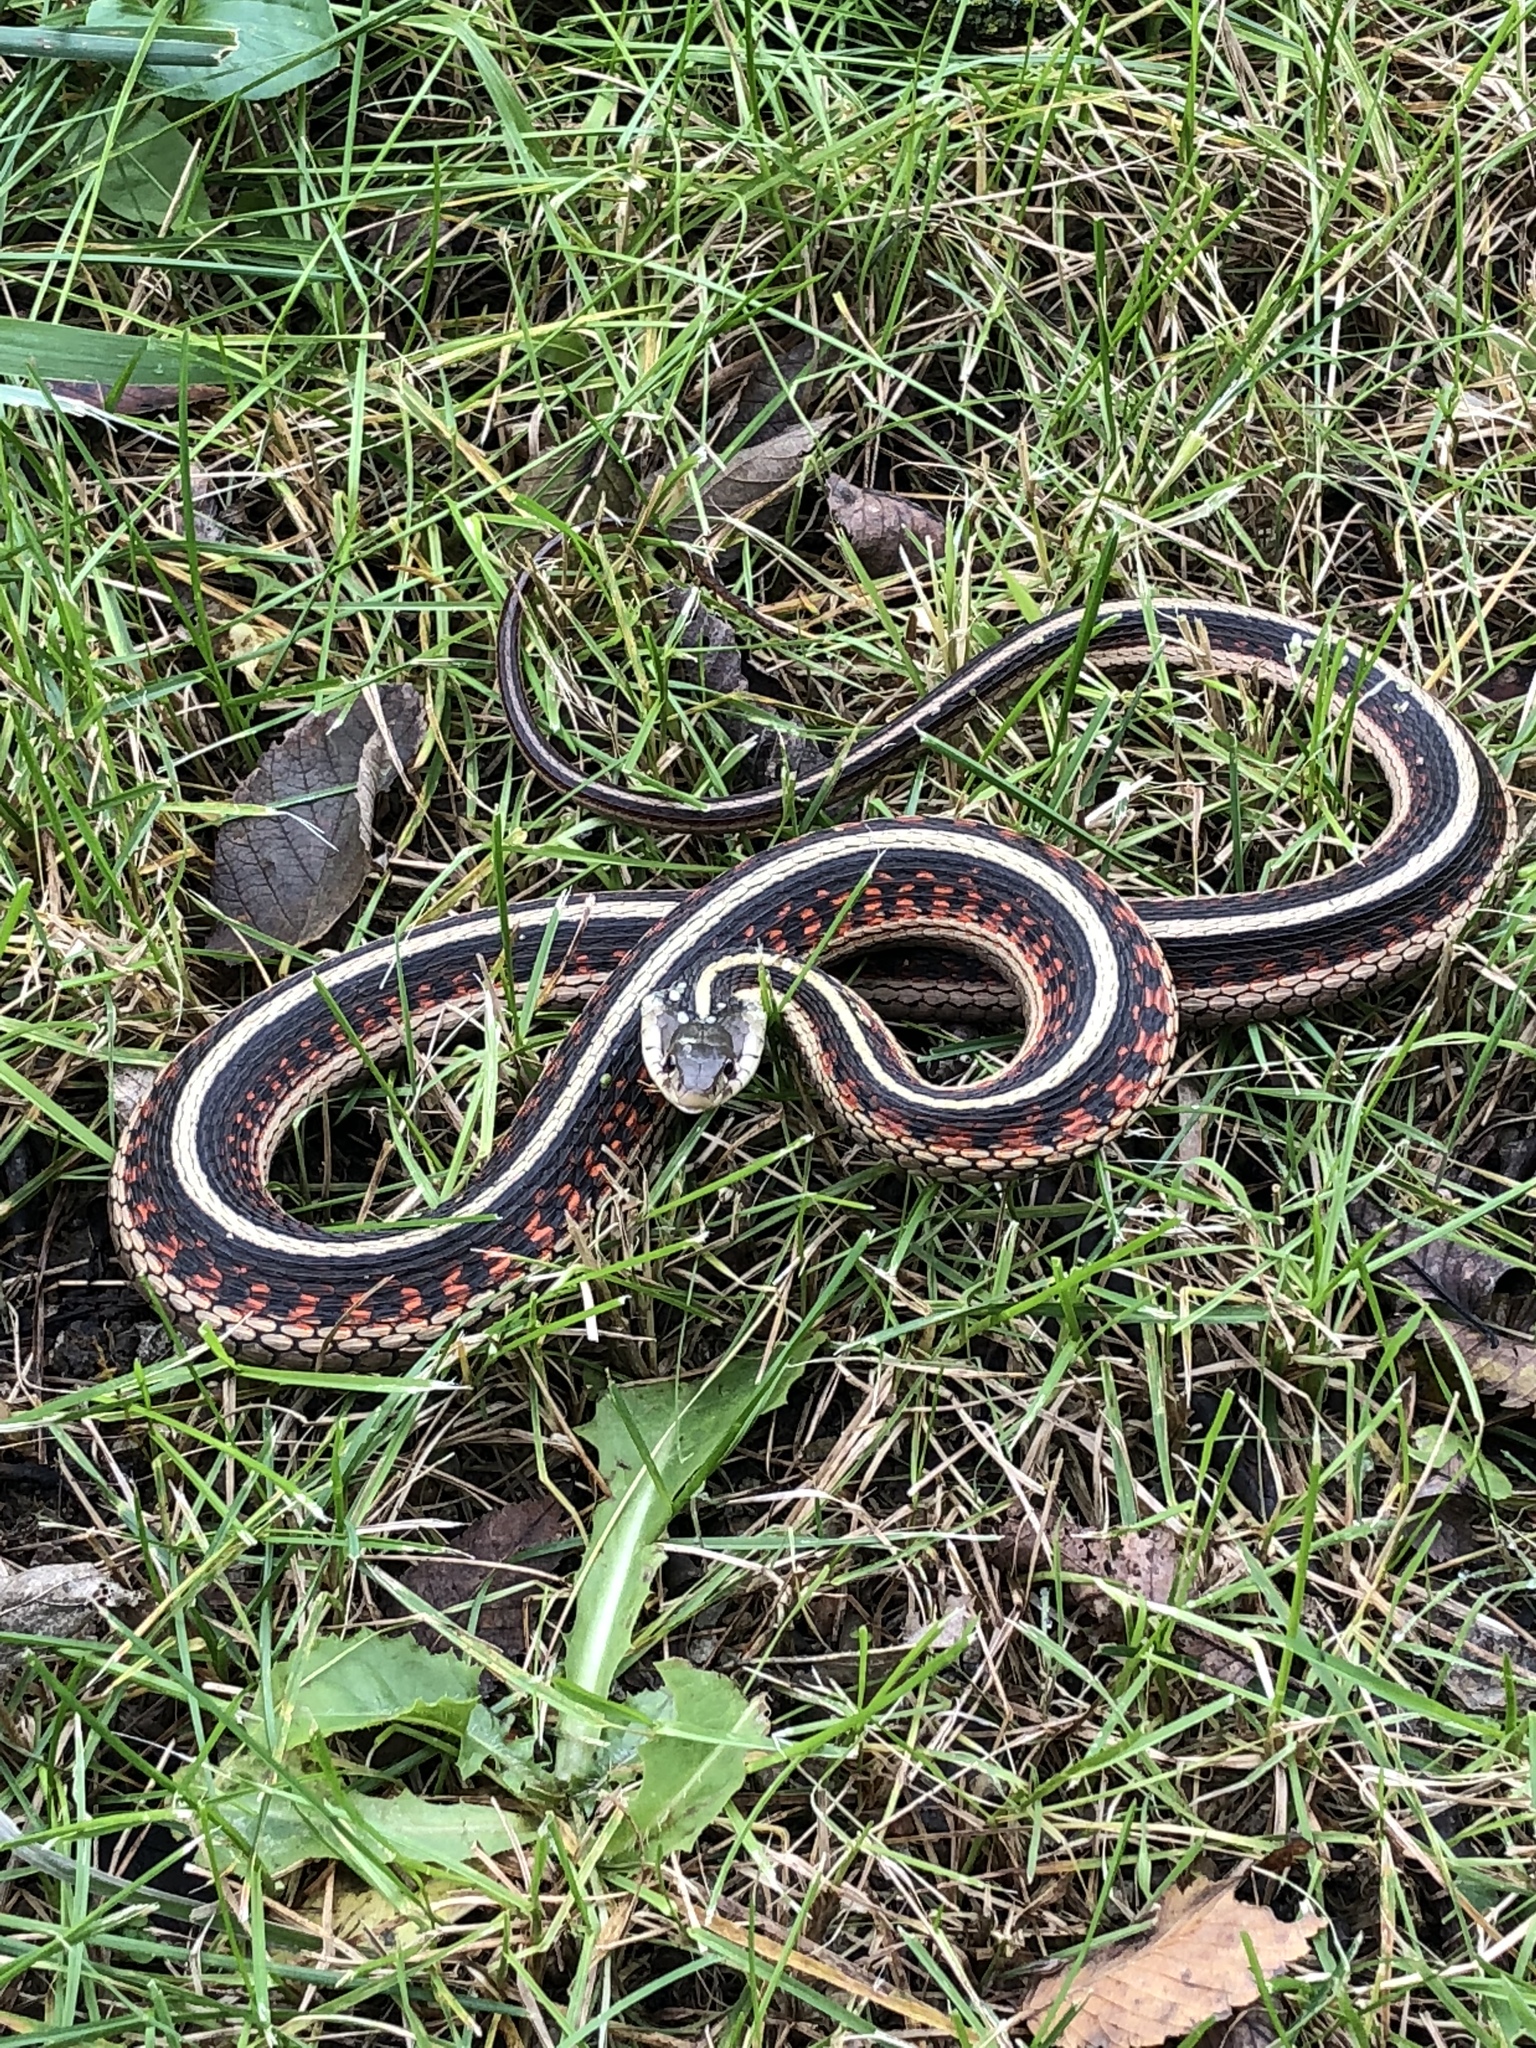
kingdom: Animalia
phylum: Chordata
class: Squamata
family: Colubridae
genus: Thamnophis
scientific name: Thamnophis sirtalis
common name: Common garter snake
